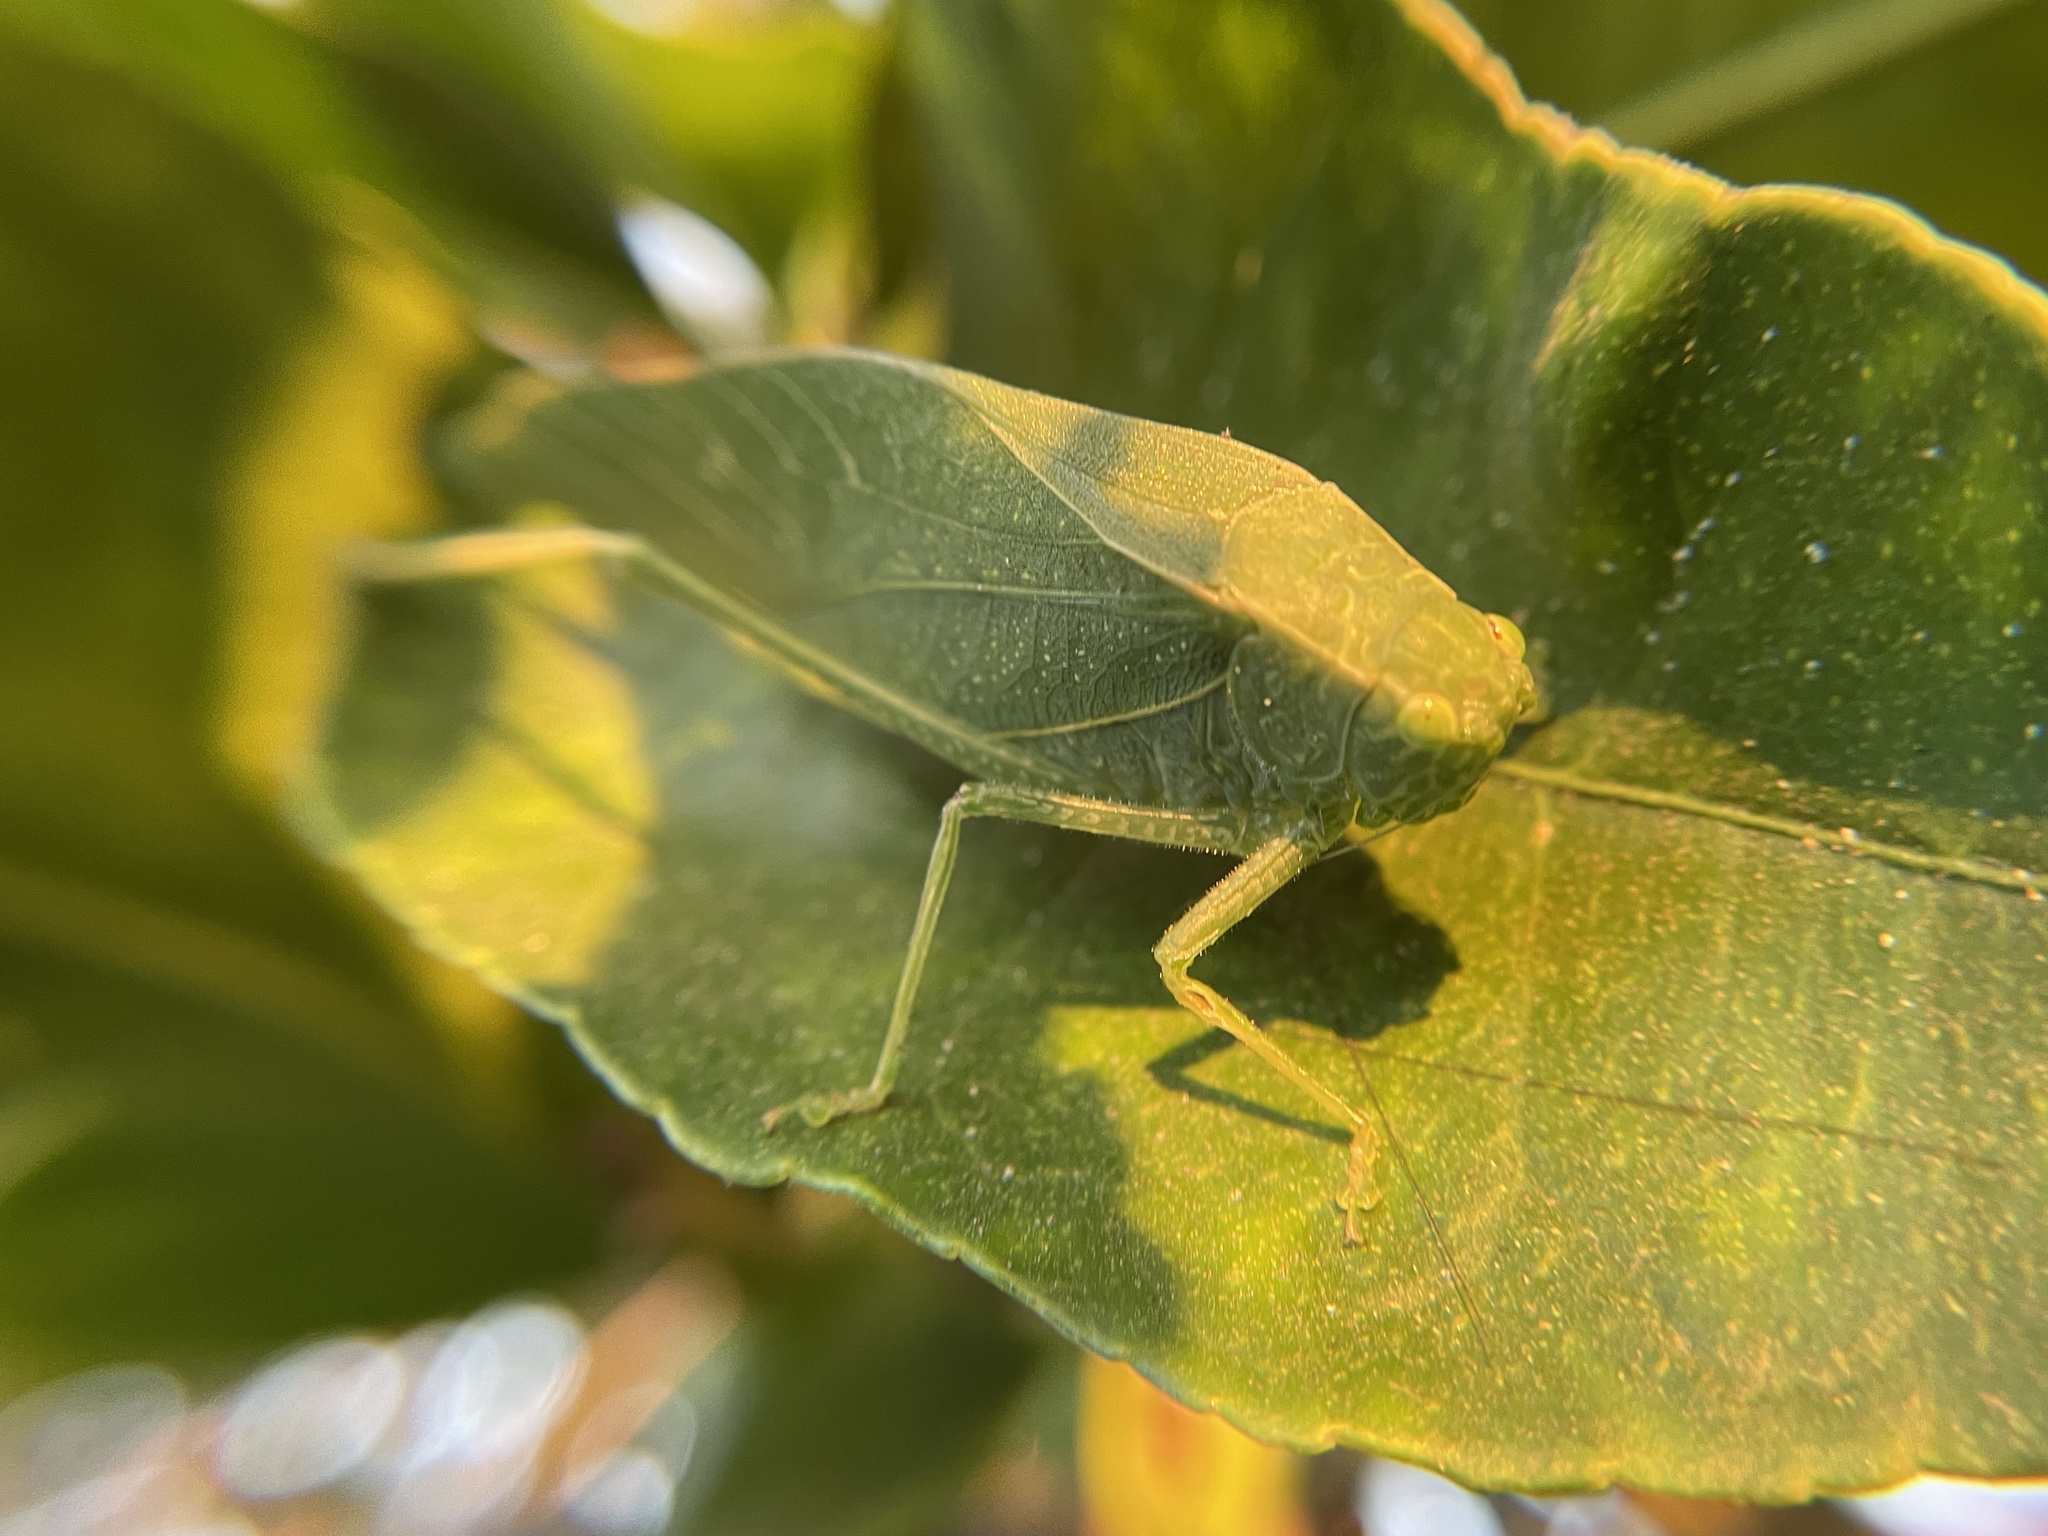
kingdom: Animalia
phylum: Arthropoda
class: Insecta
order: Orthoptera
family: Tettigoniidae
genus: Microcentrum
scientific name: Microcentrum rhombifolium
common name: Broad-winged katydid
